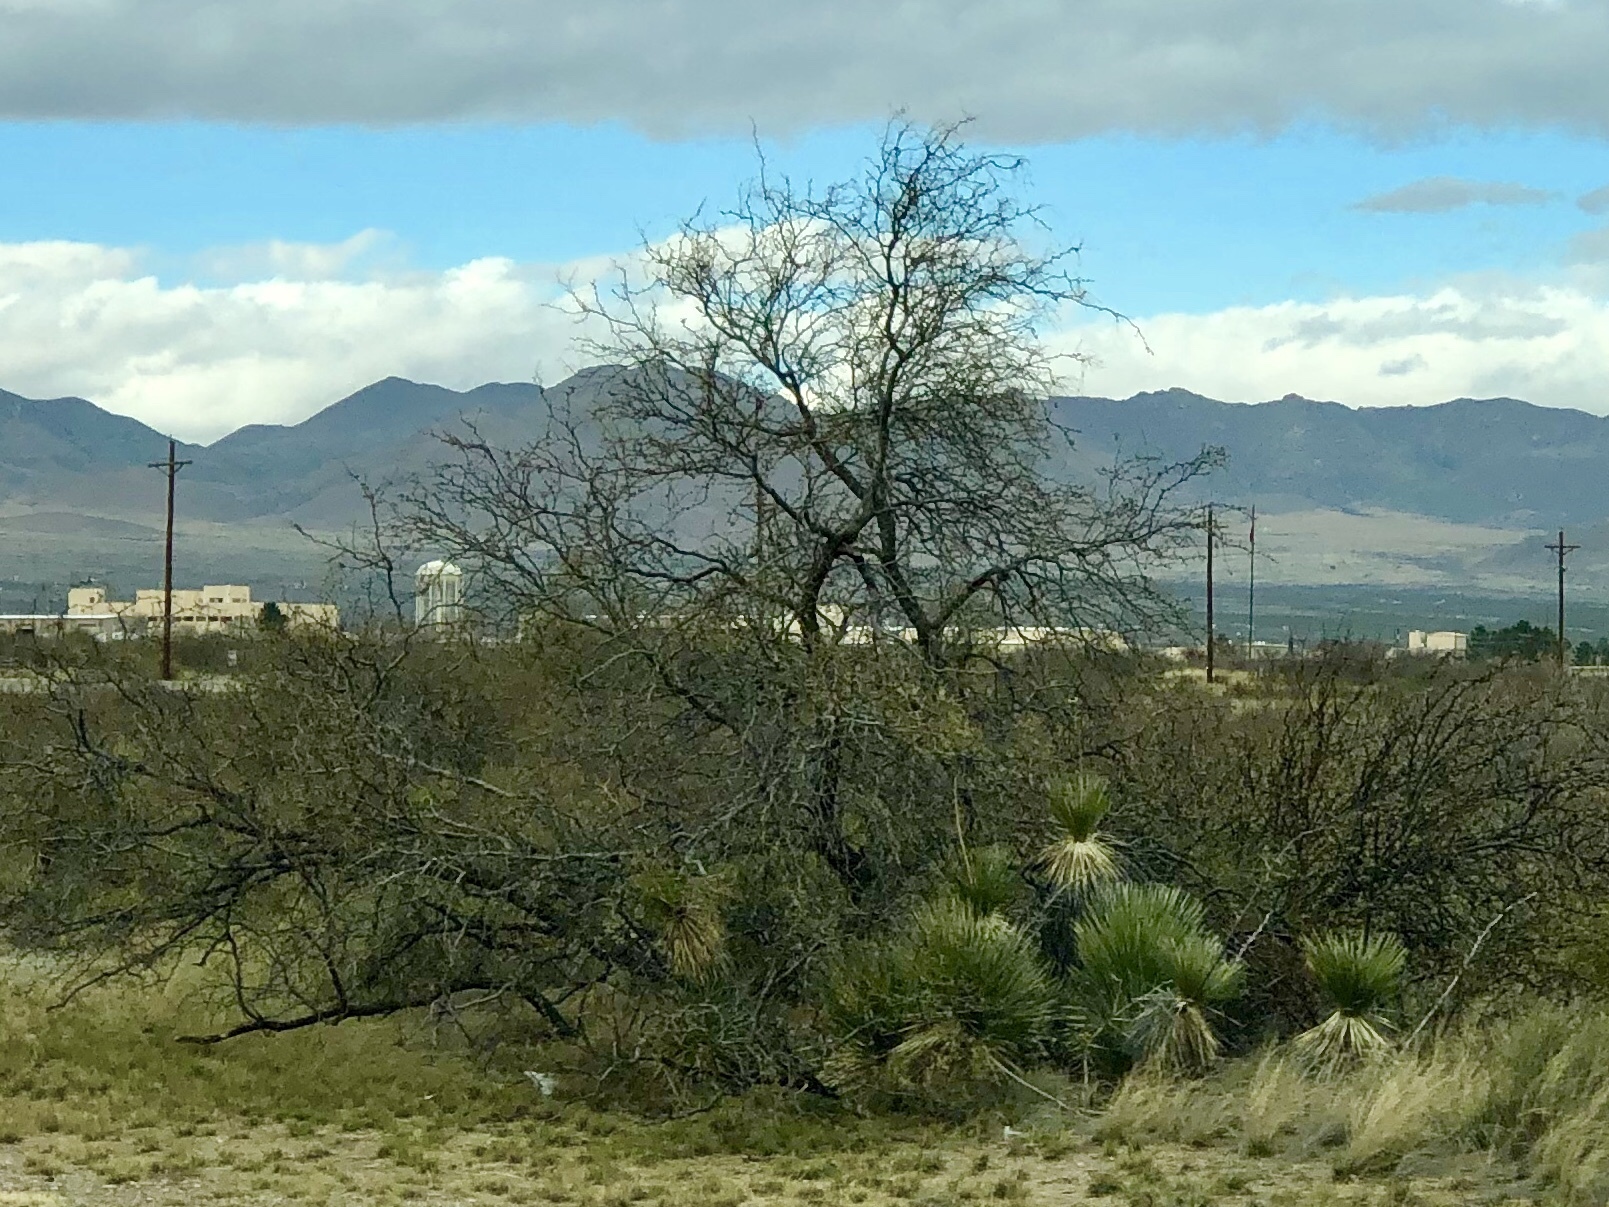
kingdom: Plantae
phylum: Tracheophyta
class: Magnoliopsida
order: Lamiales
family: Bignoniaceae
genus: Chilopsis
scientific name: Chilopsis linearis
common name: Desert-willow
